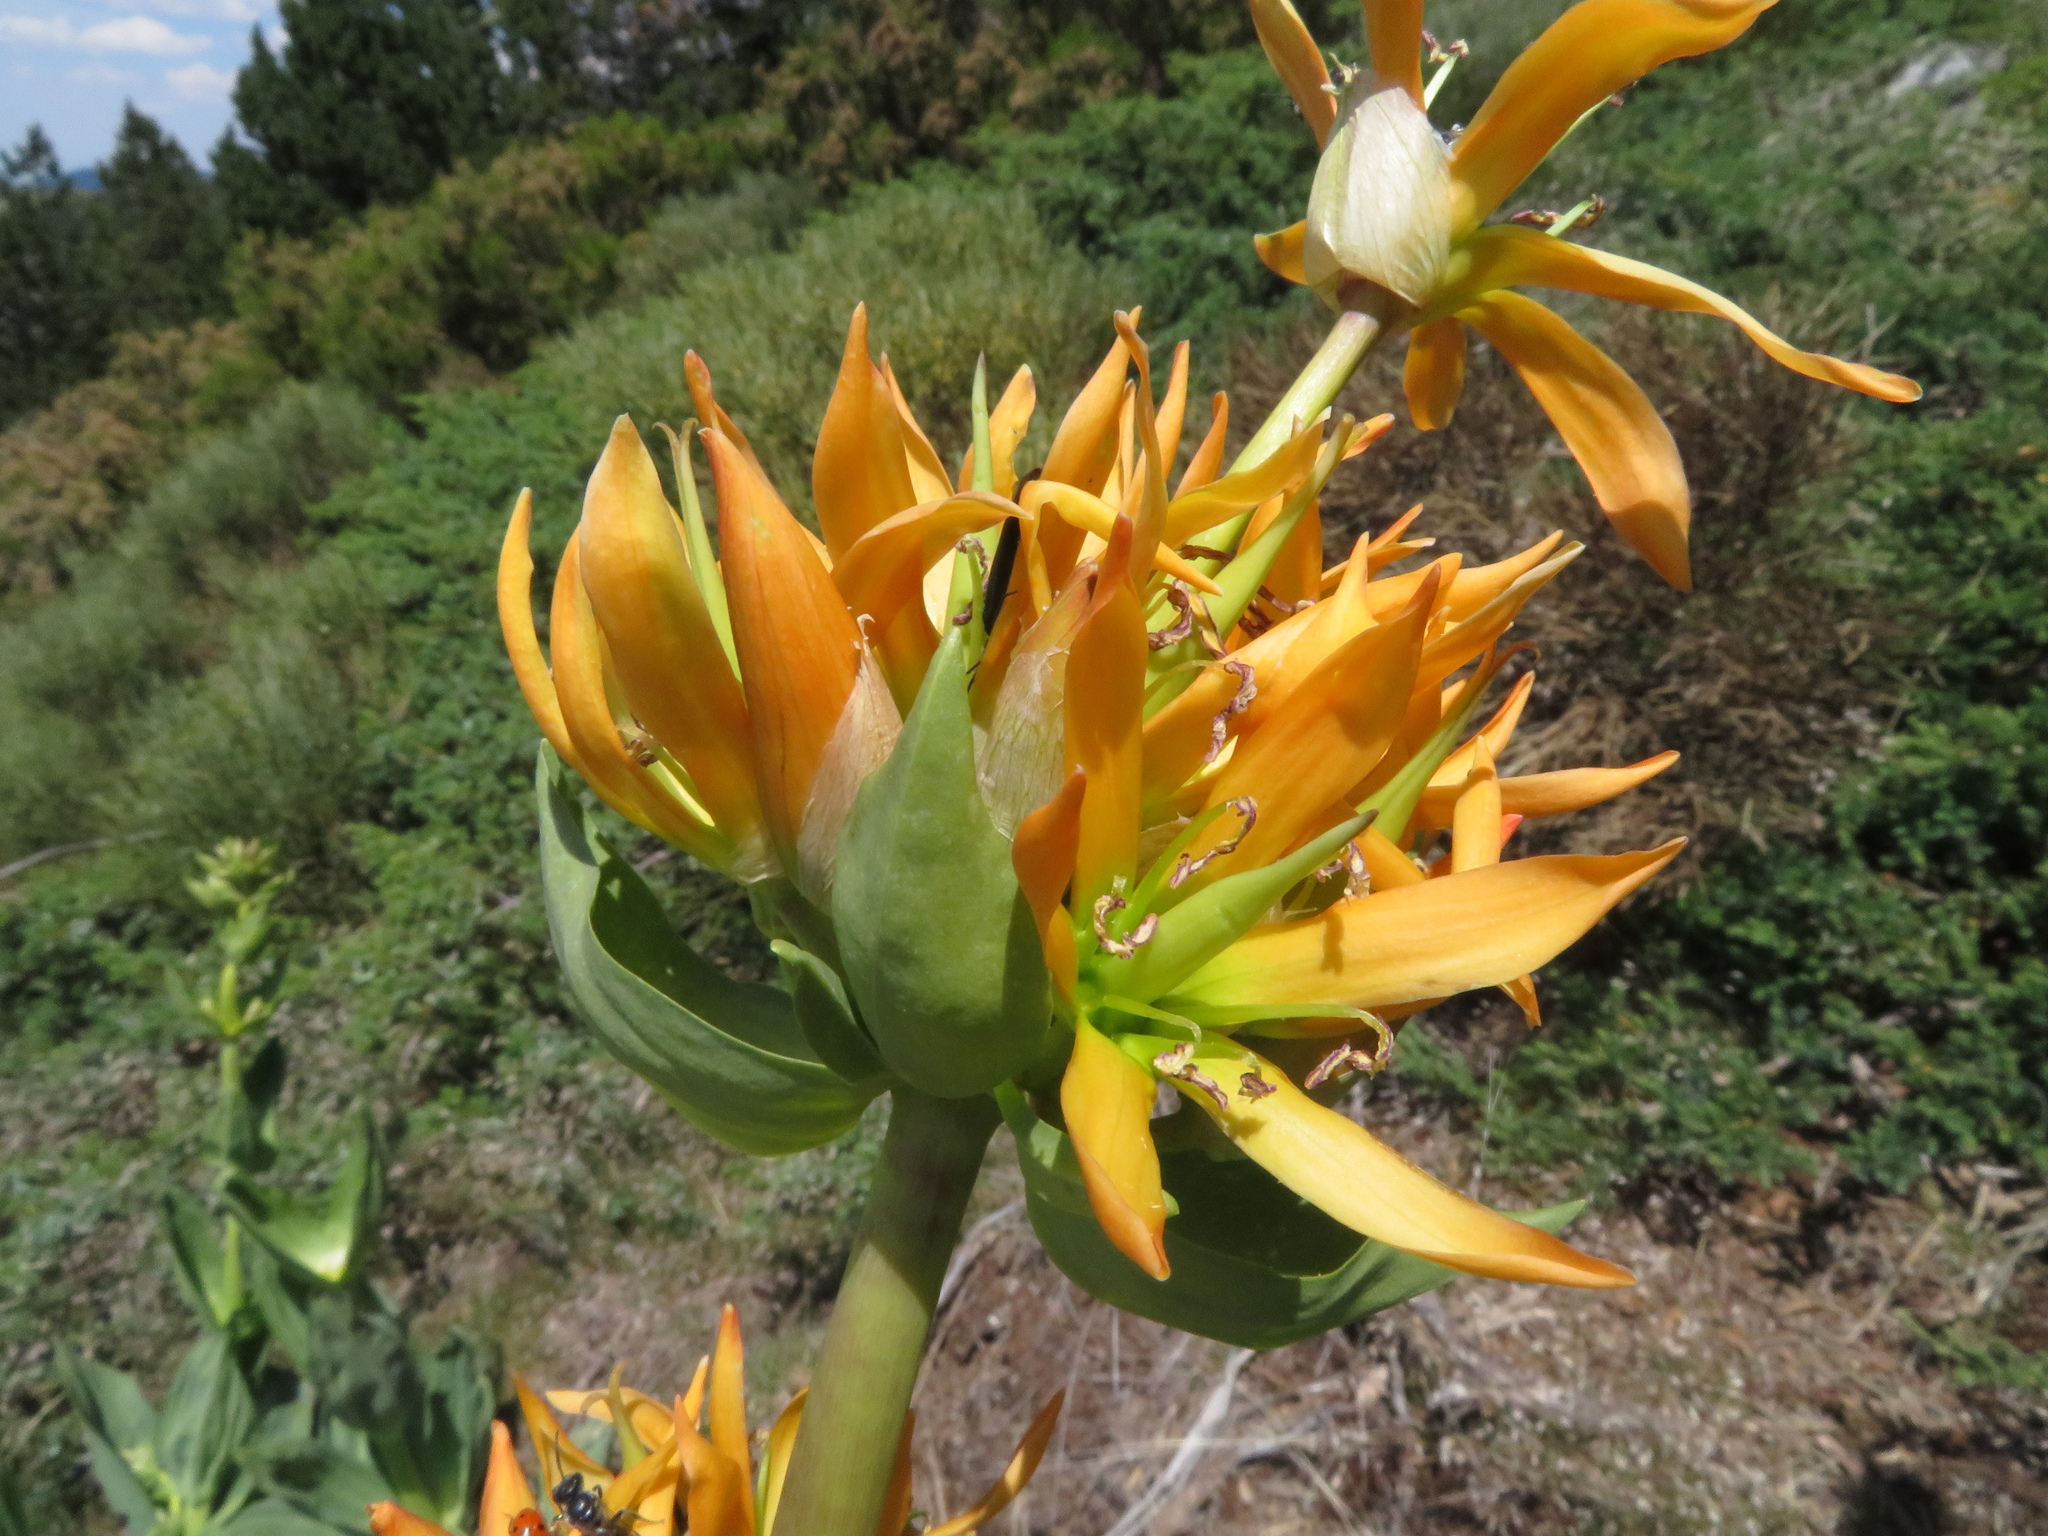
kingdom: Plantae
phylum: Tracheophyta
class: Magnoliopsida
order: Gentianales
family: Gentianaceae
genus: Gentiana
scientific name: Gentiana lutea
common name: Great yellow gentian
